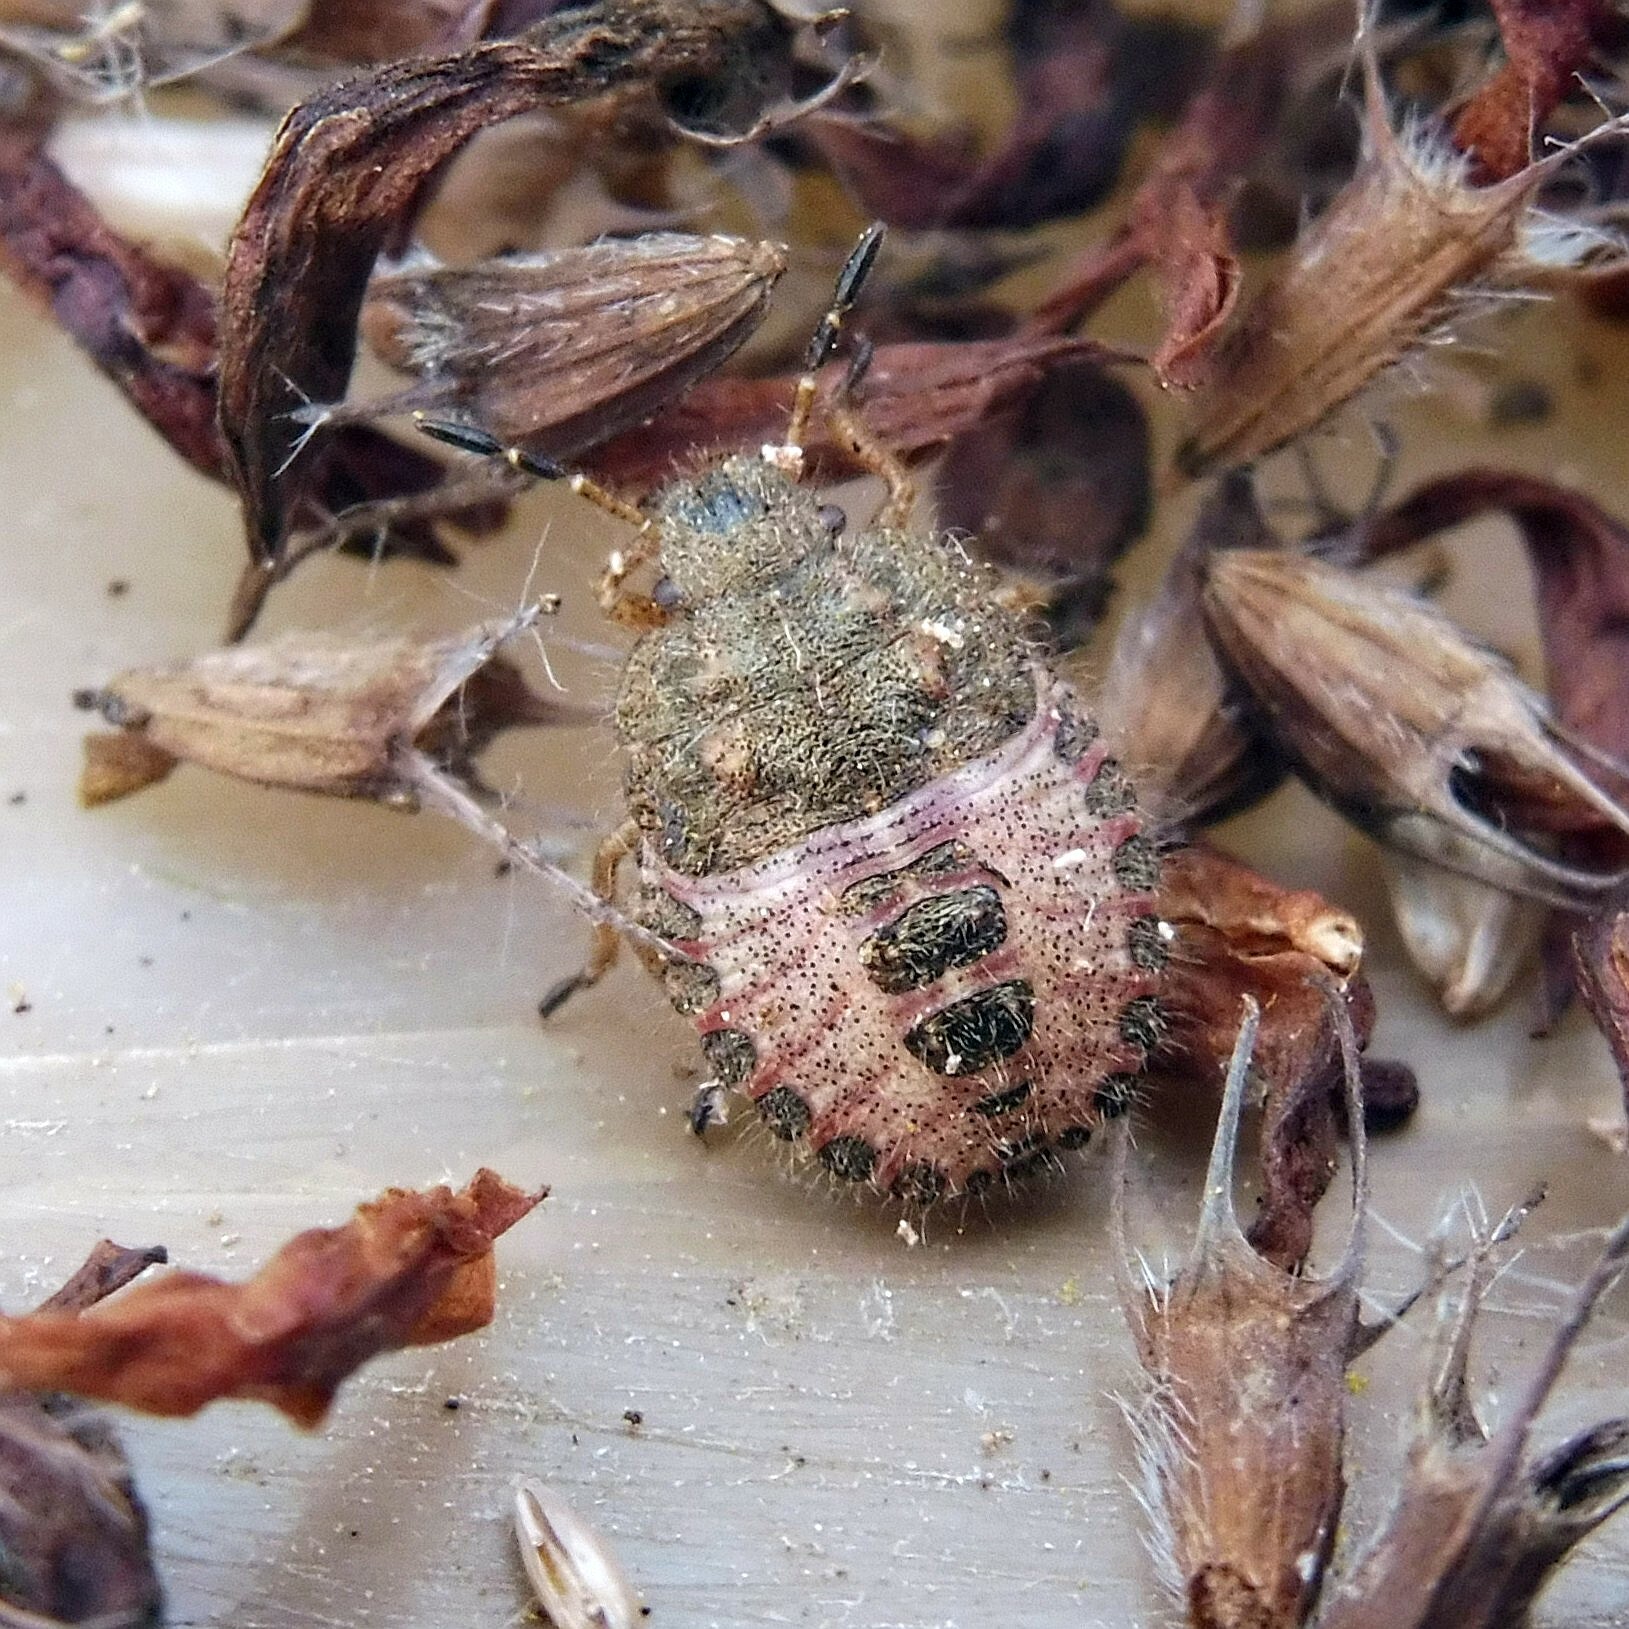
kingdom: Animalia
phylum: Arthropoda
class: Insecta
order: Hemiptera
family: Pentatomidae
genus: Dolycoris
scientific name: Dolycoris baccarum
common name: Sloe bug
